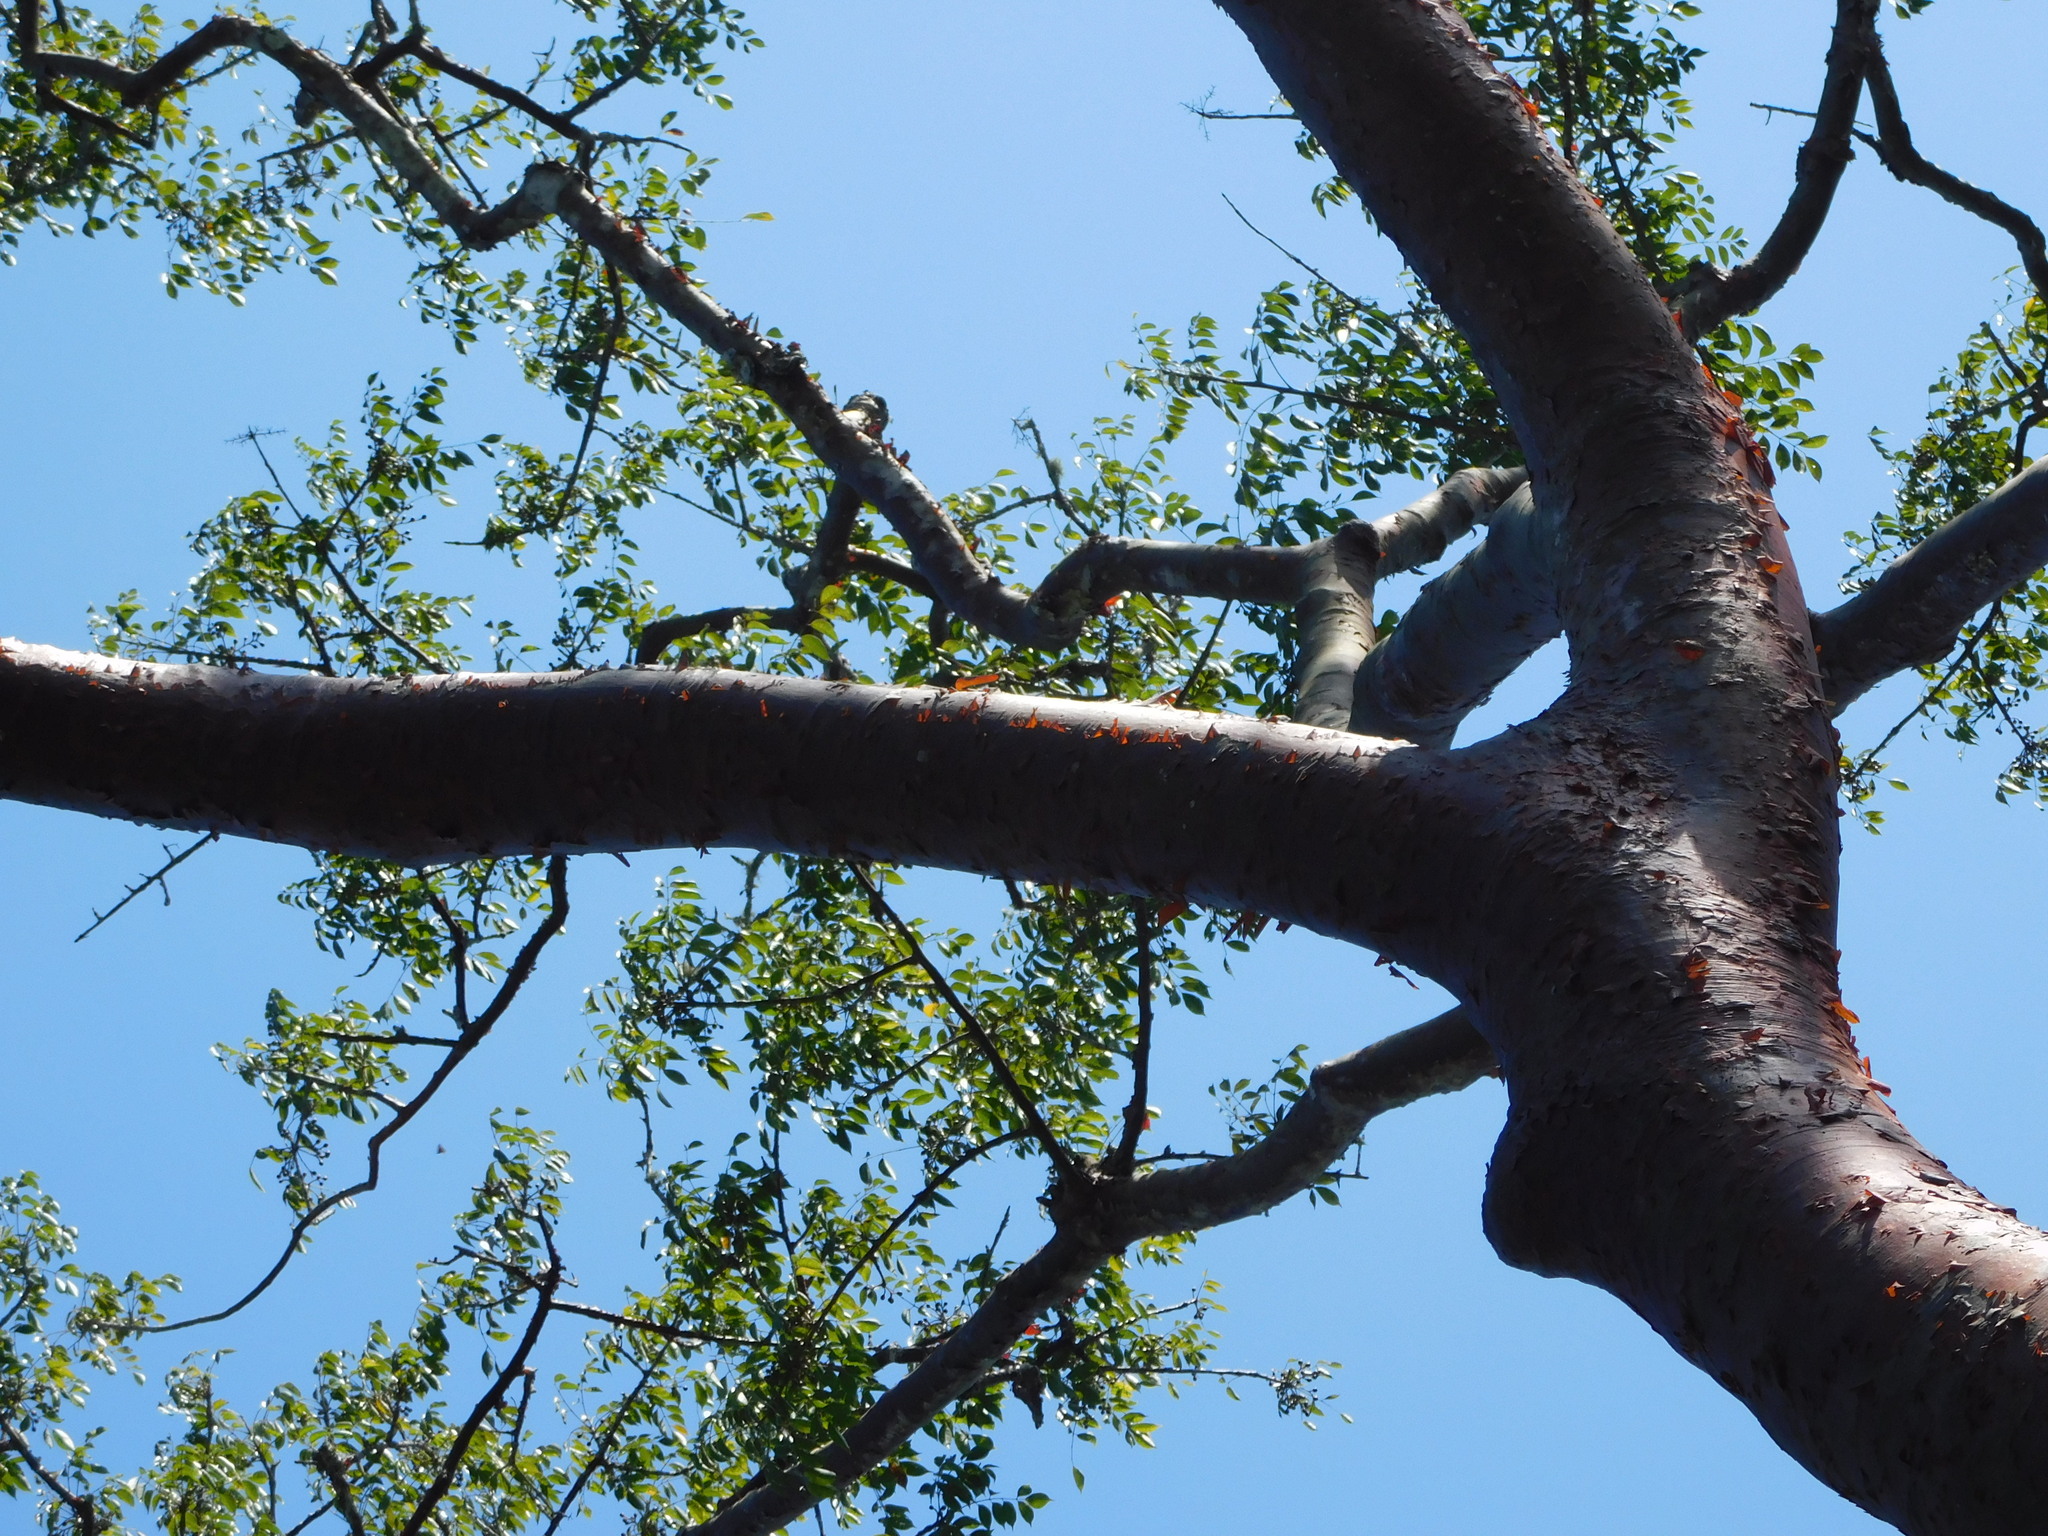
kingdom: Plantae
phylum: Tracheophyta
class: Magnoliopsida
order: Sapindales
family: Burseraceae
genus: Bursera
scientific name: Bursera simaruba
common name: Turpentine tree
